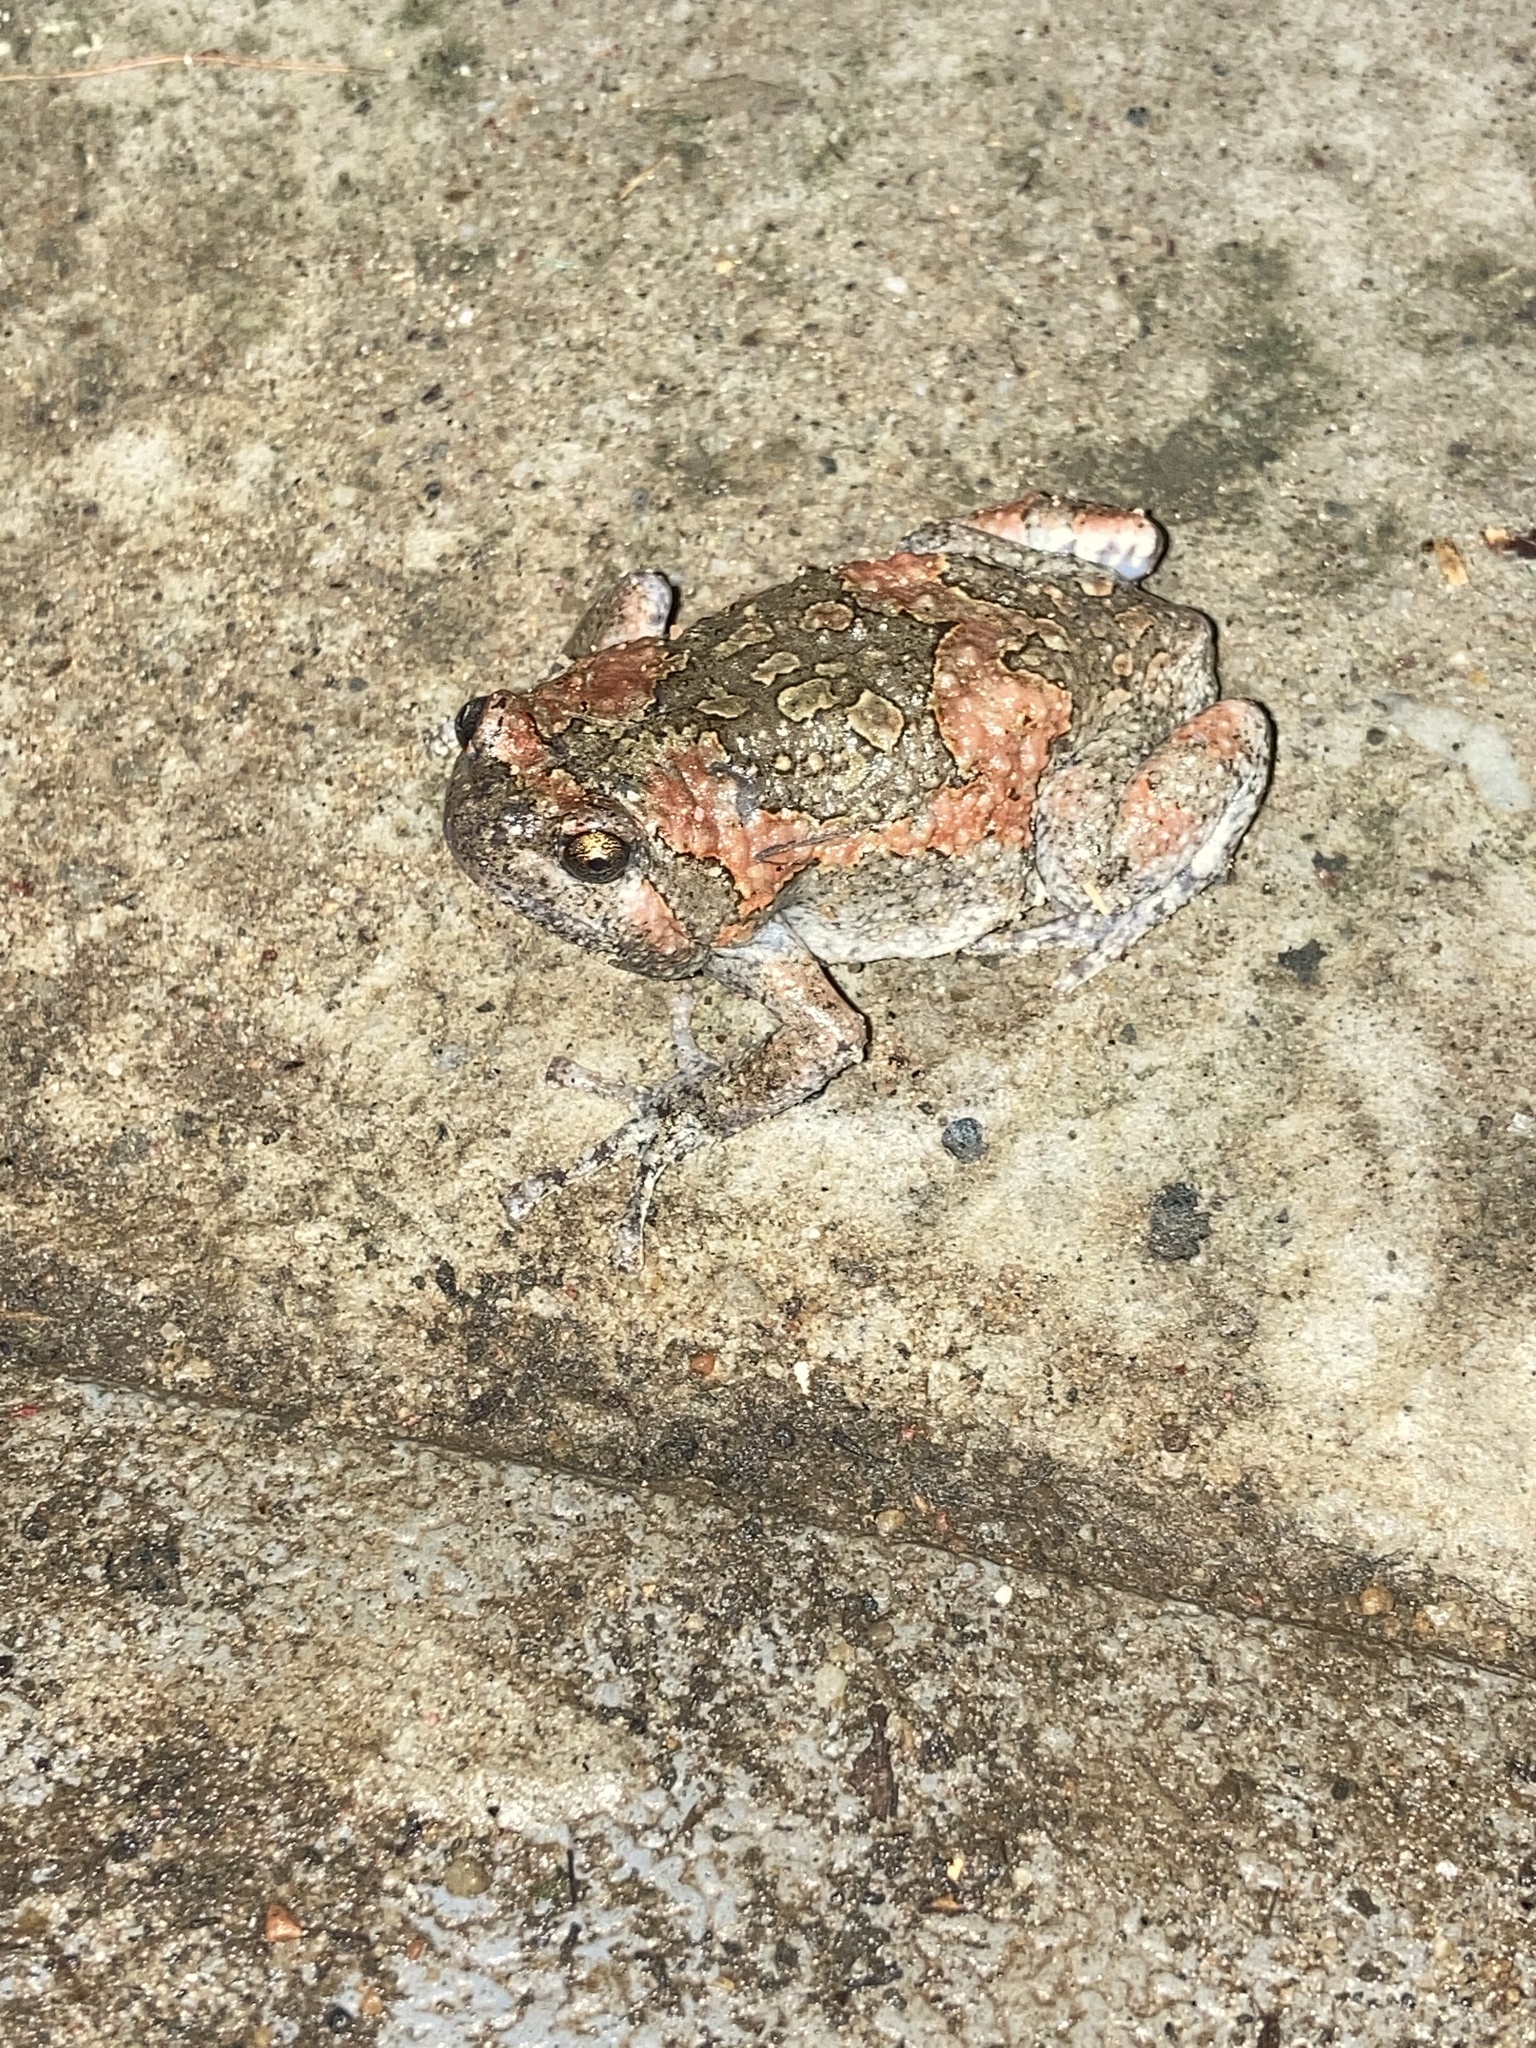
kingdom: Animalia
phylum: Chordata
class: Amphibia
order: Anura
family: Microhylidae
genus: Uperodon
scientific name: Uperodon taprobanicus
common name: Ceylon kaloula
